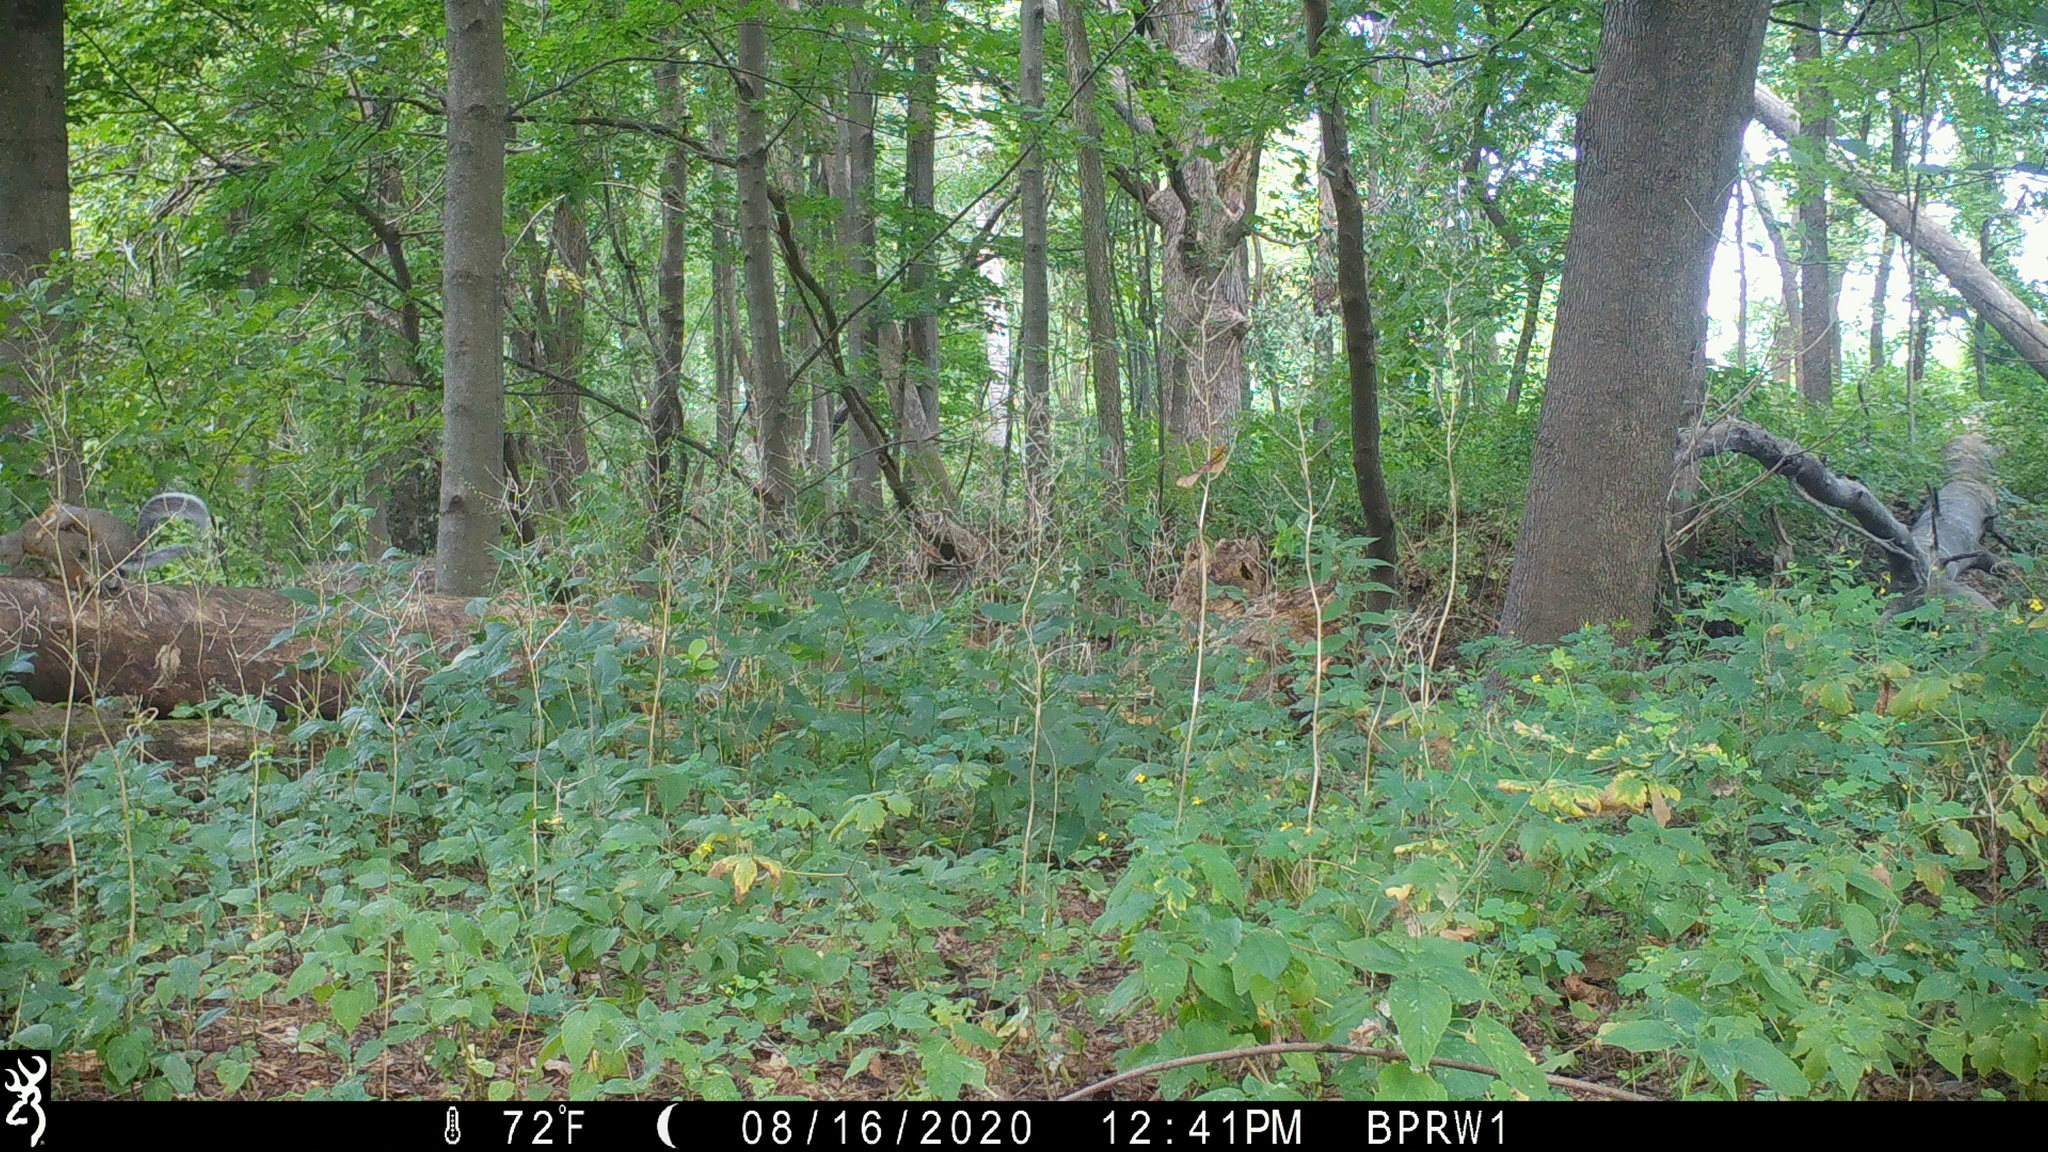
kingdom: Animalia
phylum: Chordata
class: Mammalia
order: Rodentia
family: Sciuridae
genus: Sciurus
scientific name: Sciurus carolinensis
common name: Eastern gray squirrel
